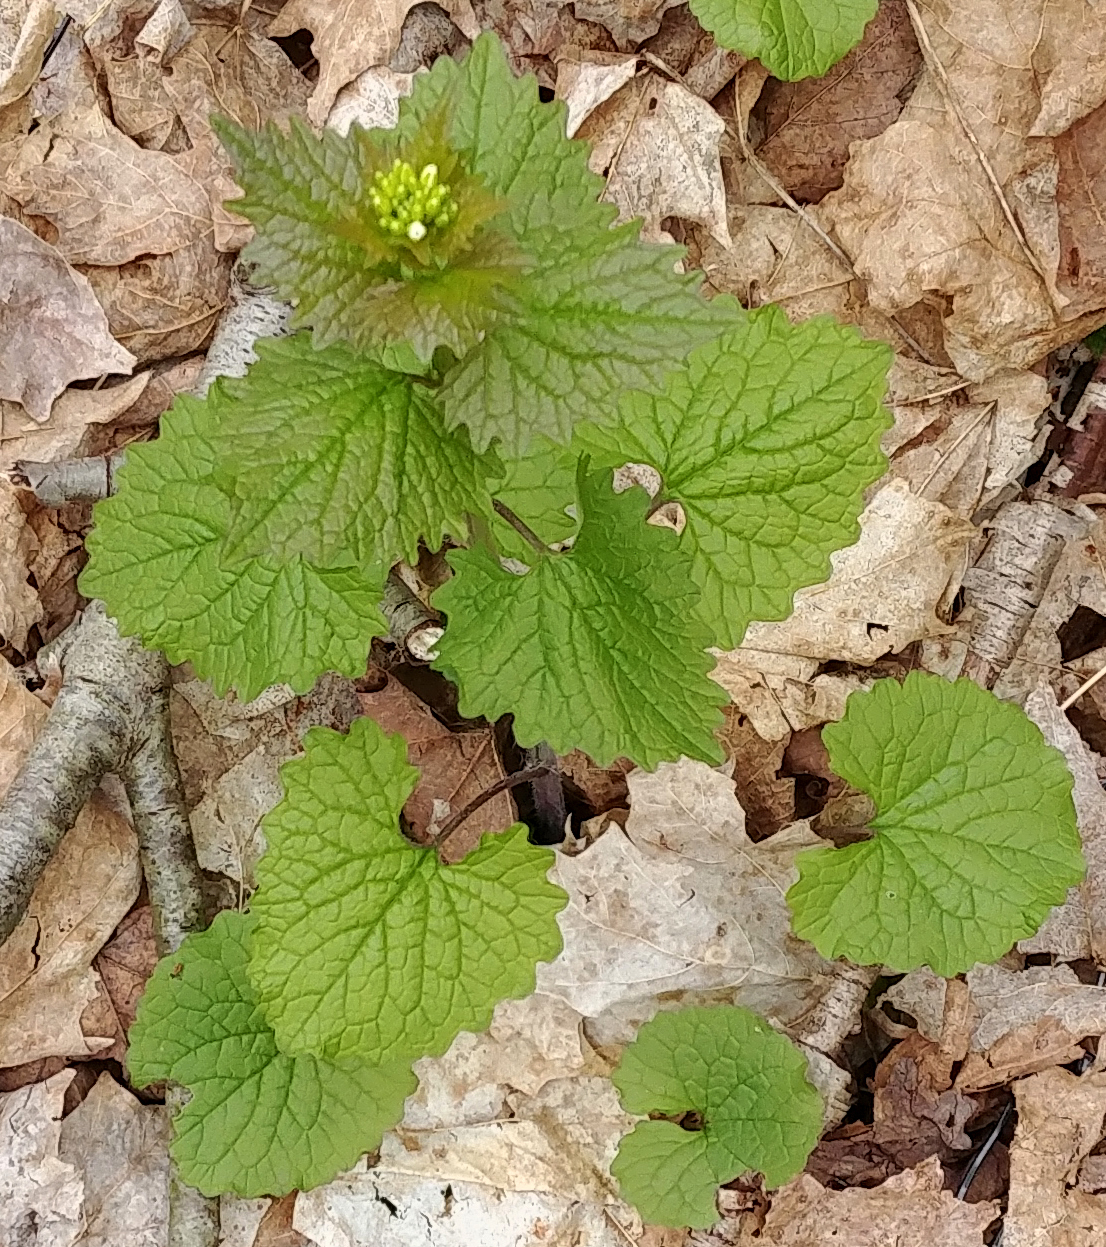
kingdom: Plantae
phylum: Tracheophyta
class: Magnoliopsida
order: Brassicales
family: Brassicaceae
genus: Alliaria
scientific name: Alliaria petiolata
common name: Garlic mustard
